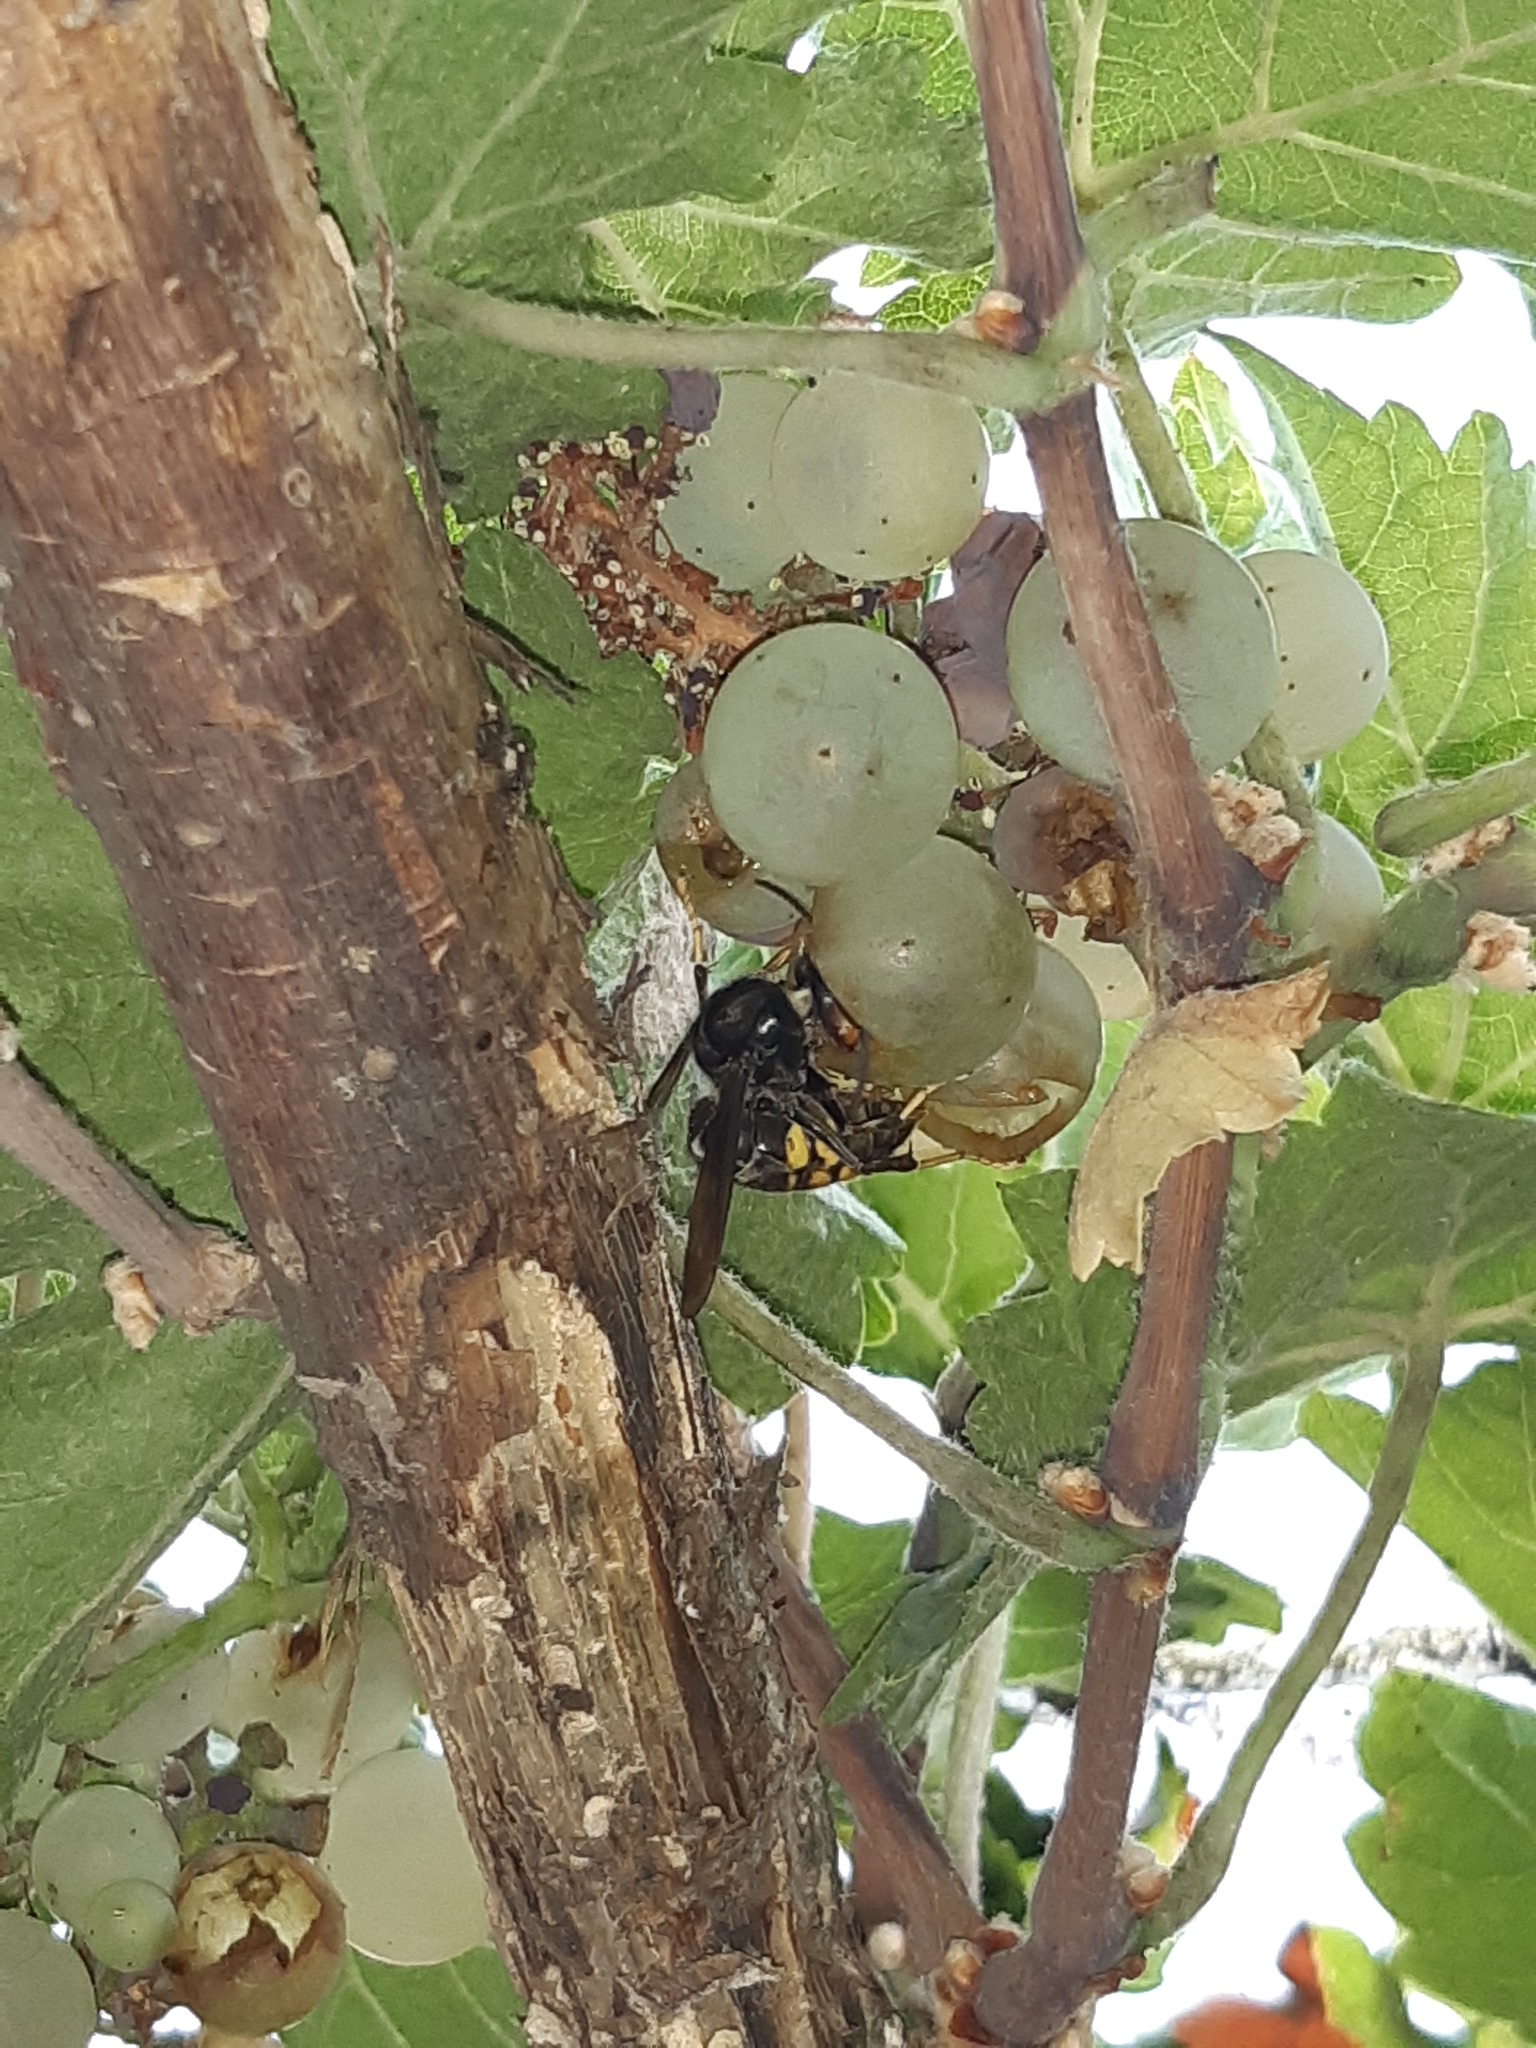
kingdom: Animalia
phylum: Arthropoda
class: Insecta
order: Hymenoptera
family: Vespidae
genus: Vespa
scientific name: Vespa velutina
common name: Asian hornet
